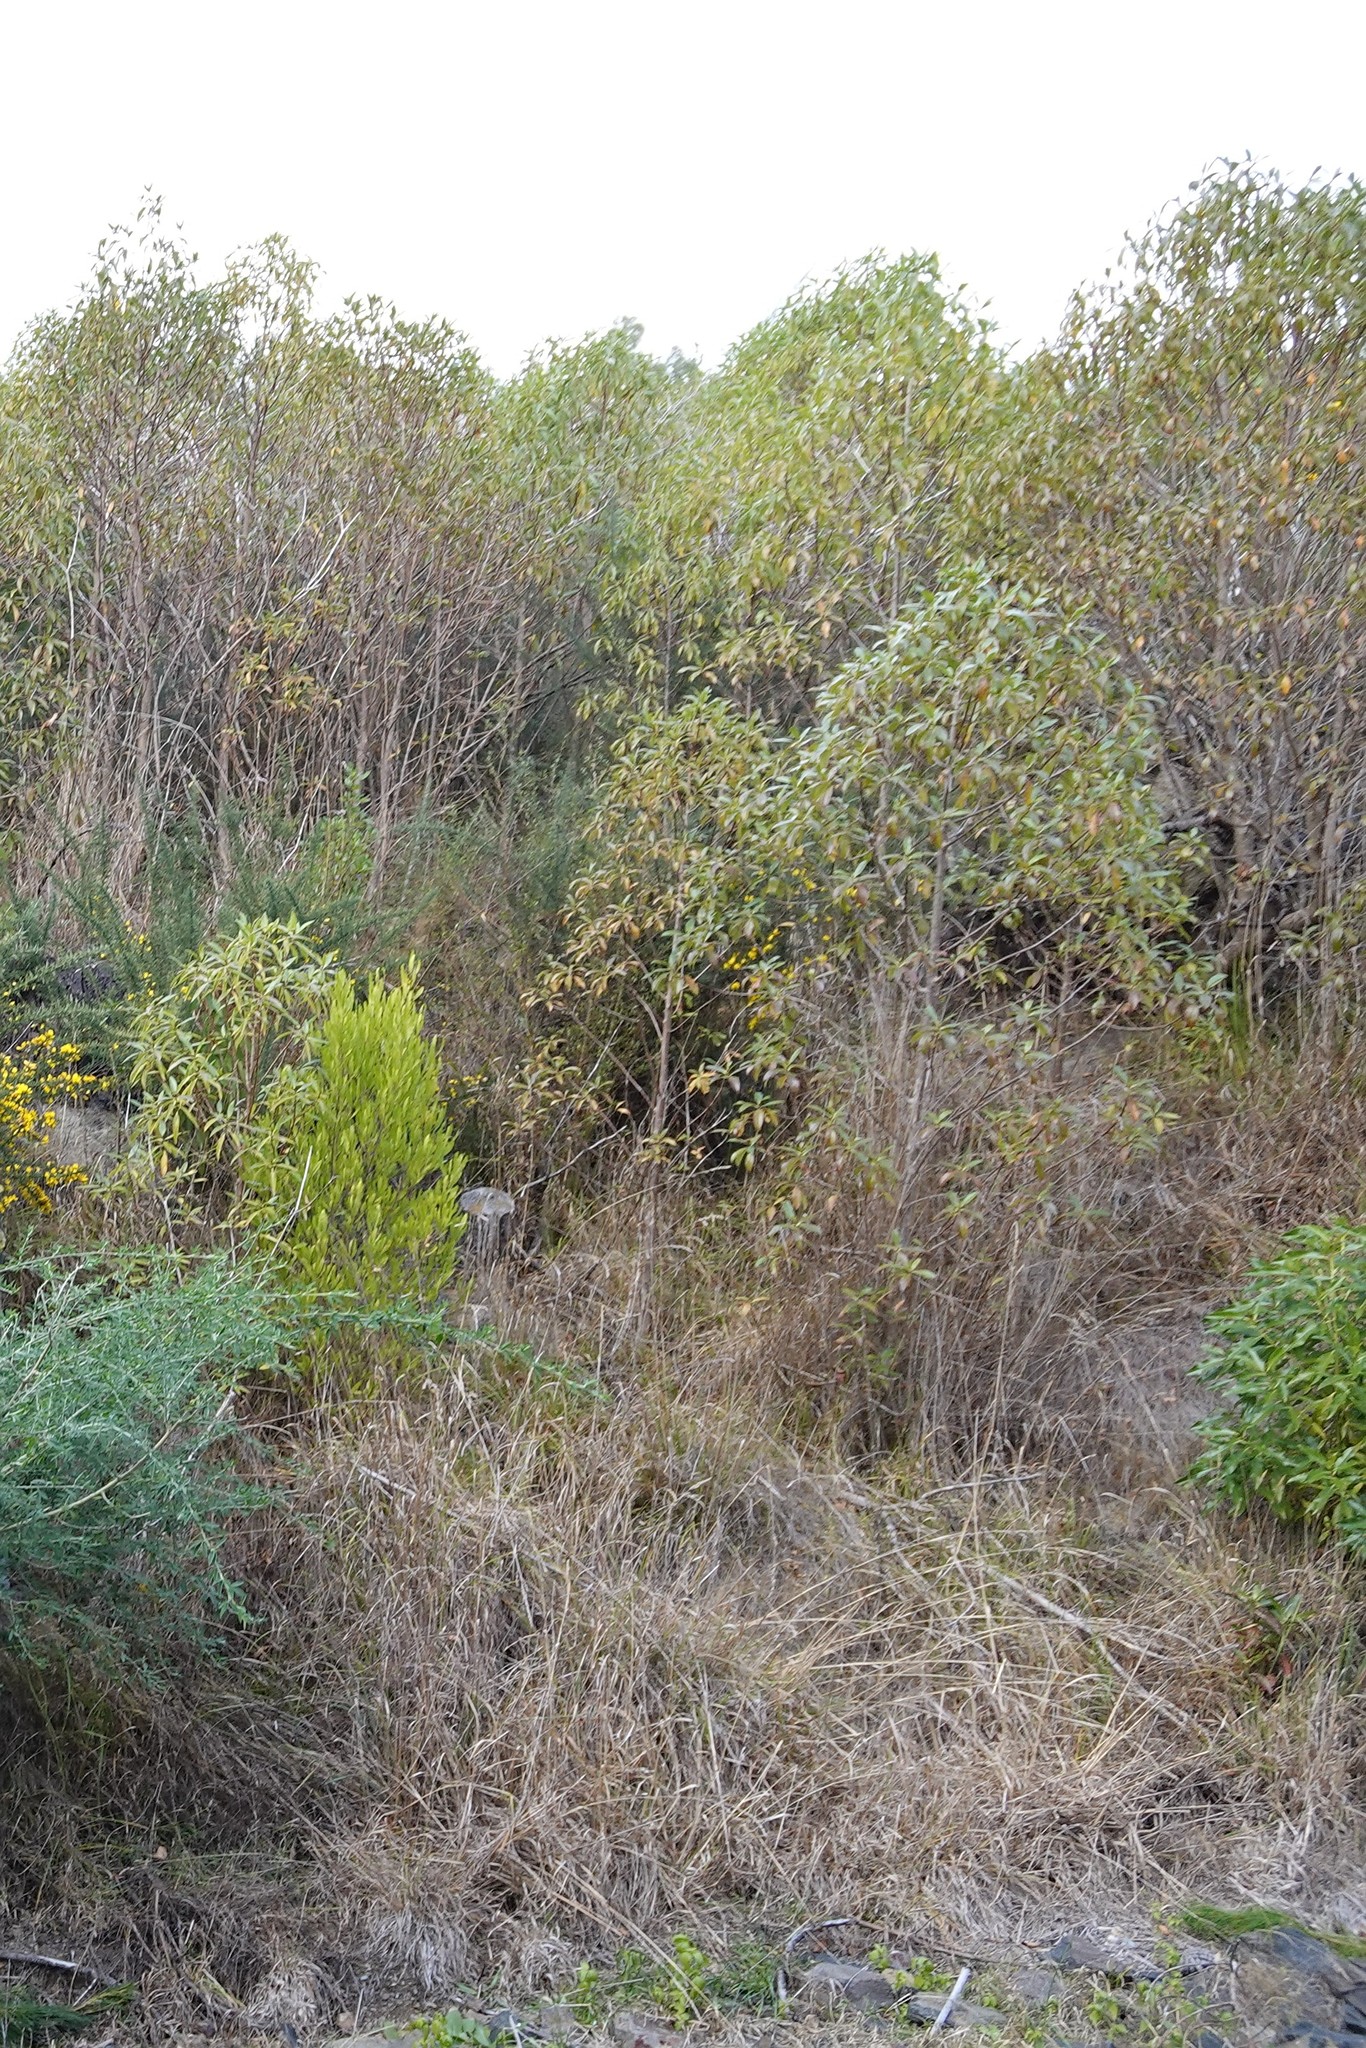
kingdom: Plantae
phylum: Tracheophyta
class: Magnoliopsida
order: Lamiales
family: Scrophulariaceae
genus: Myoporum
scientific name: Myoporum laetum
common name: Ngaio tree
